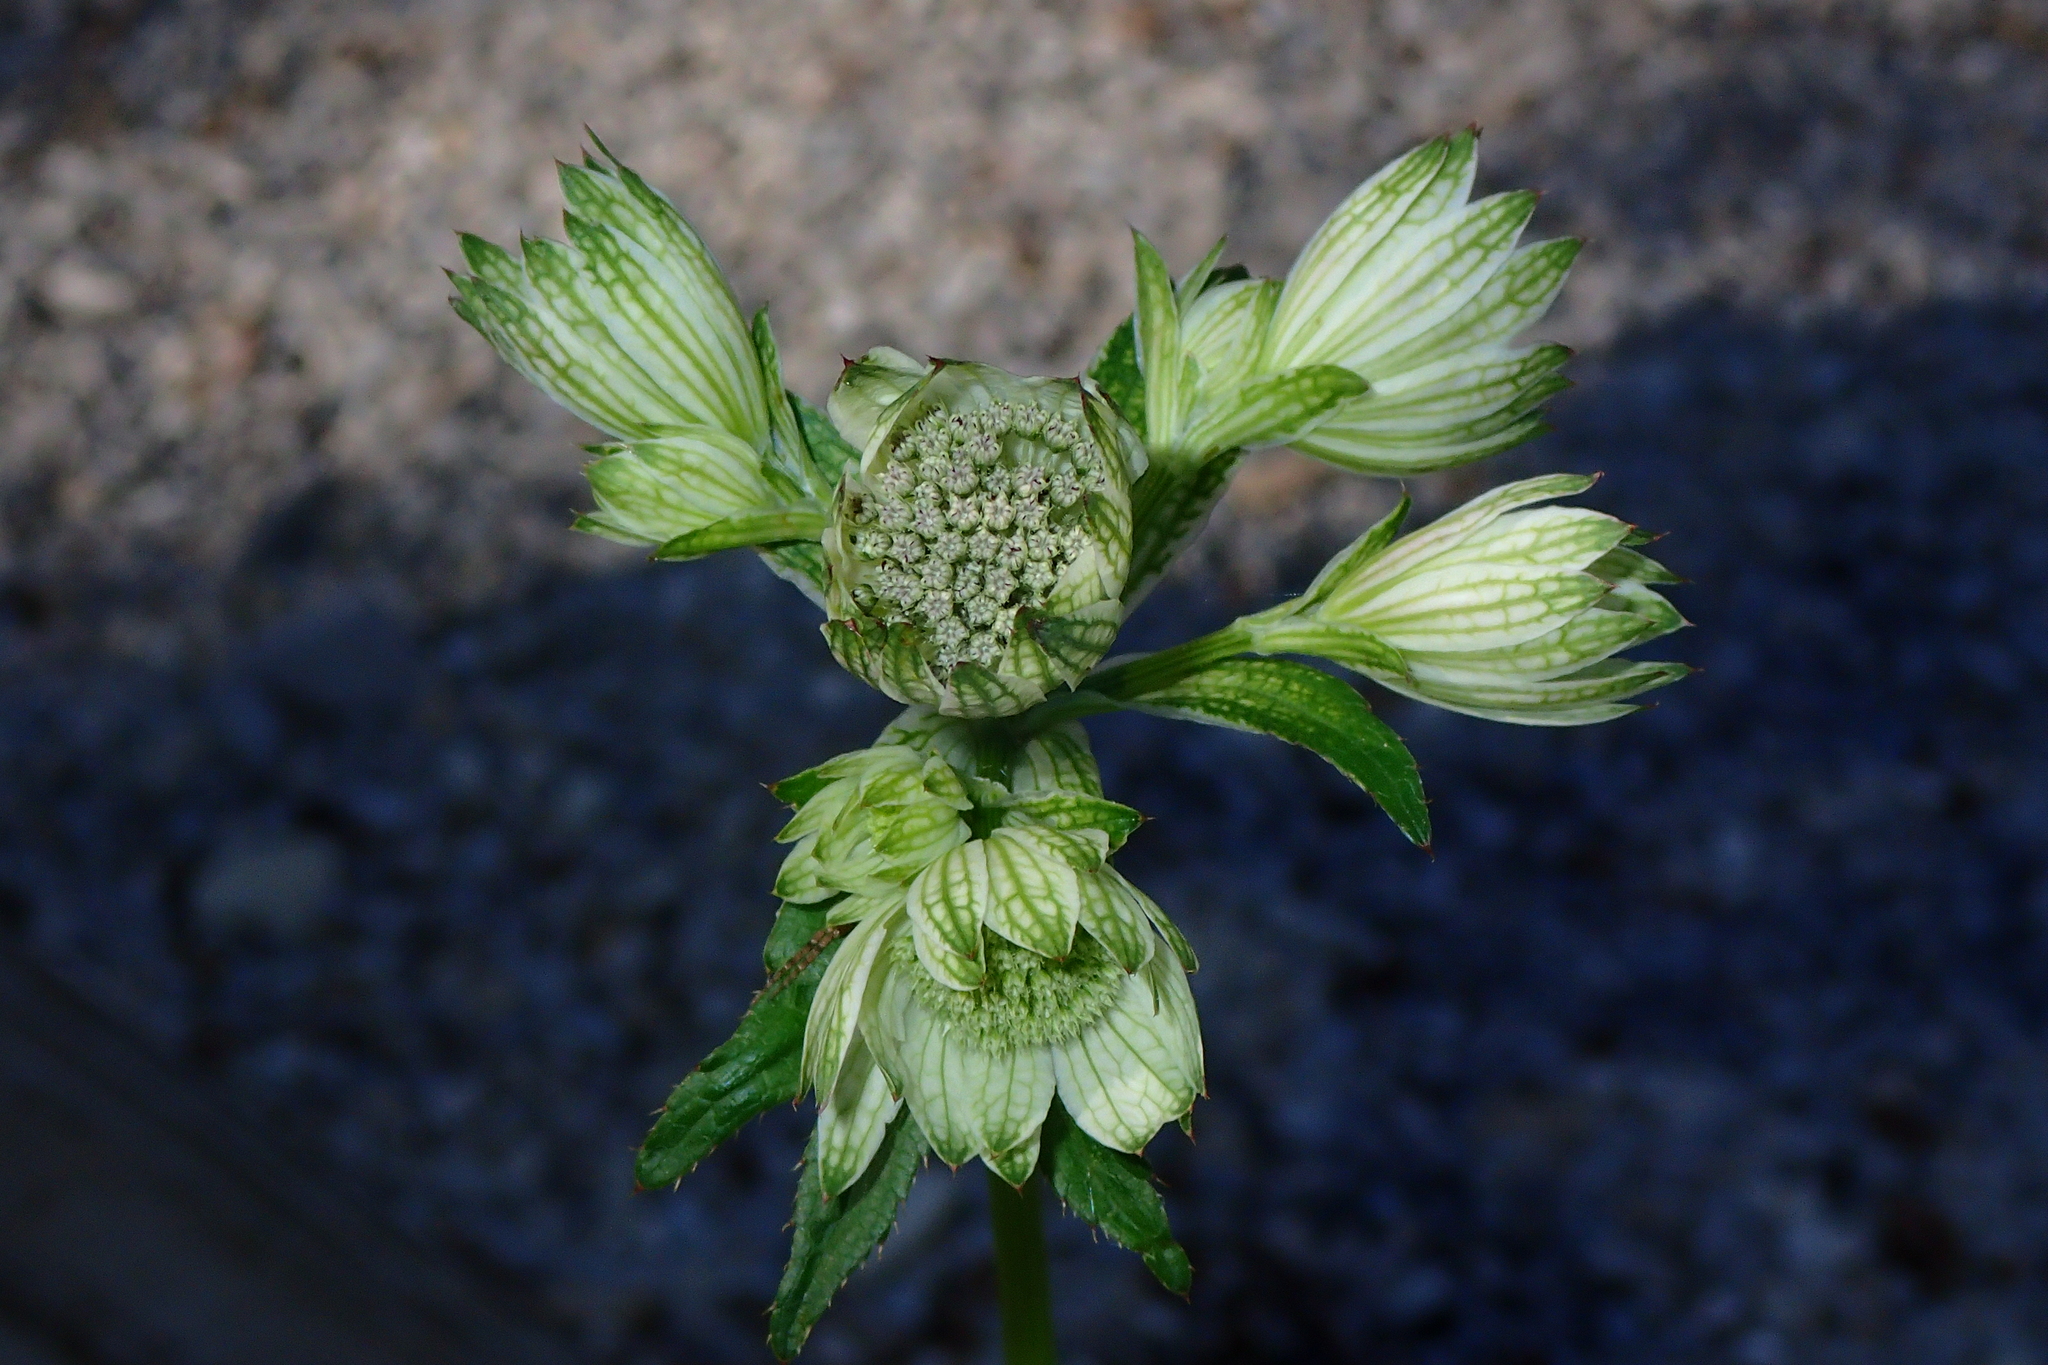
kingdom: Plantae
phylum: Tracheophyta
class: Magnoliopsida
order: Apiales
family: Apiaceae
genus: Astrantia
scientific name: Astrantia major
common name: Greater masterwort
